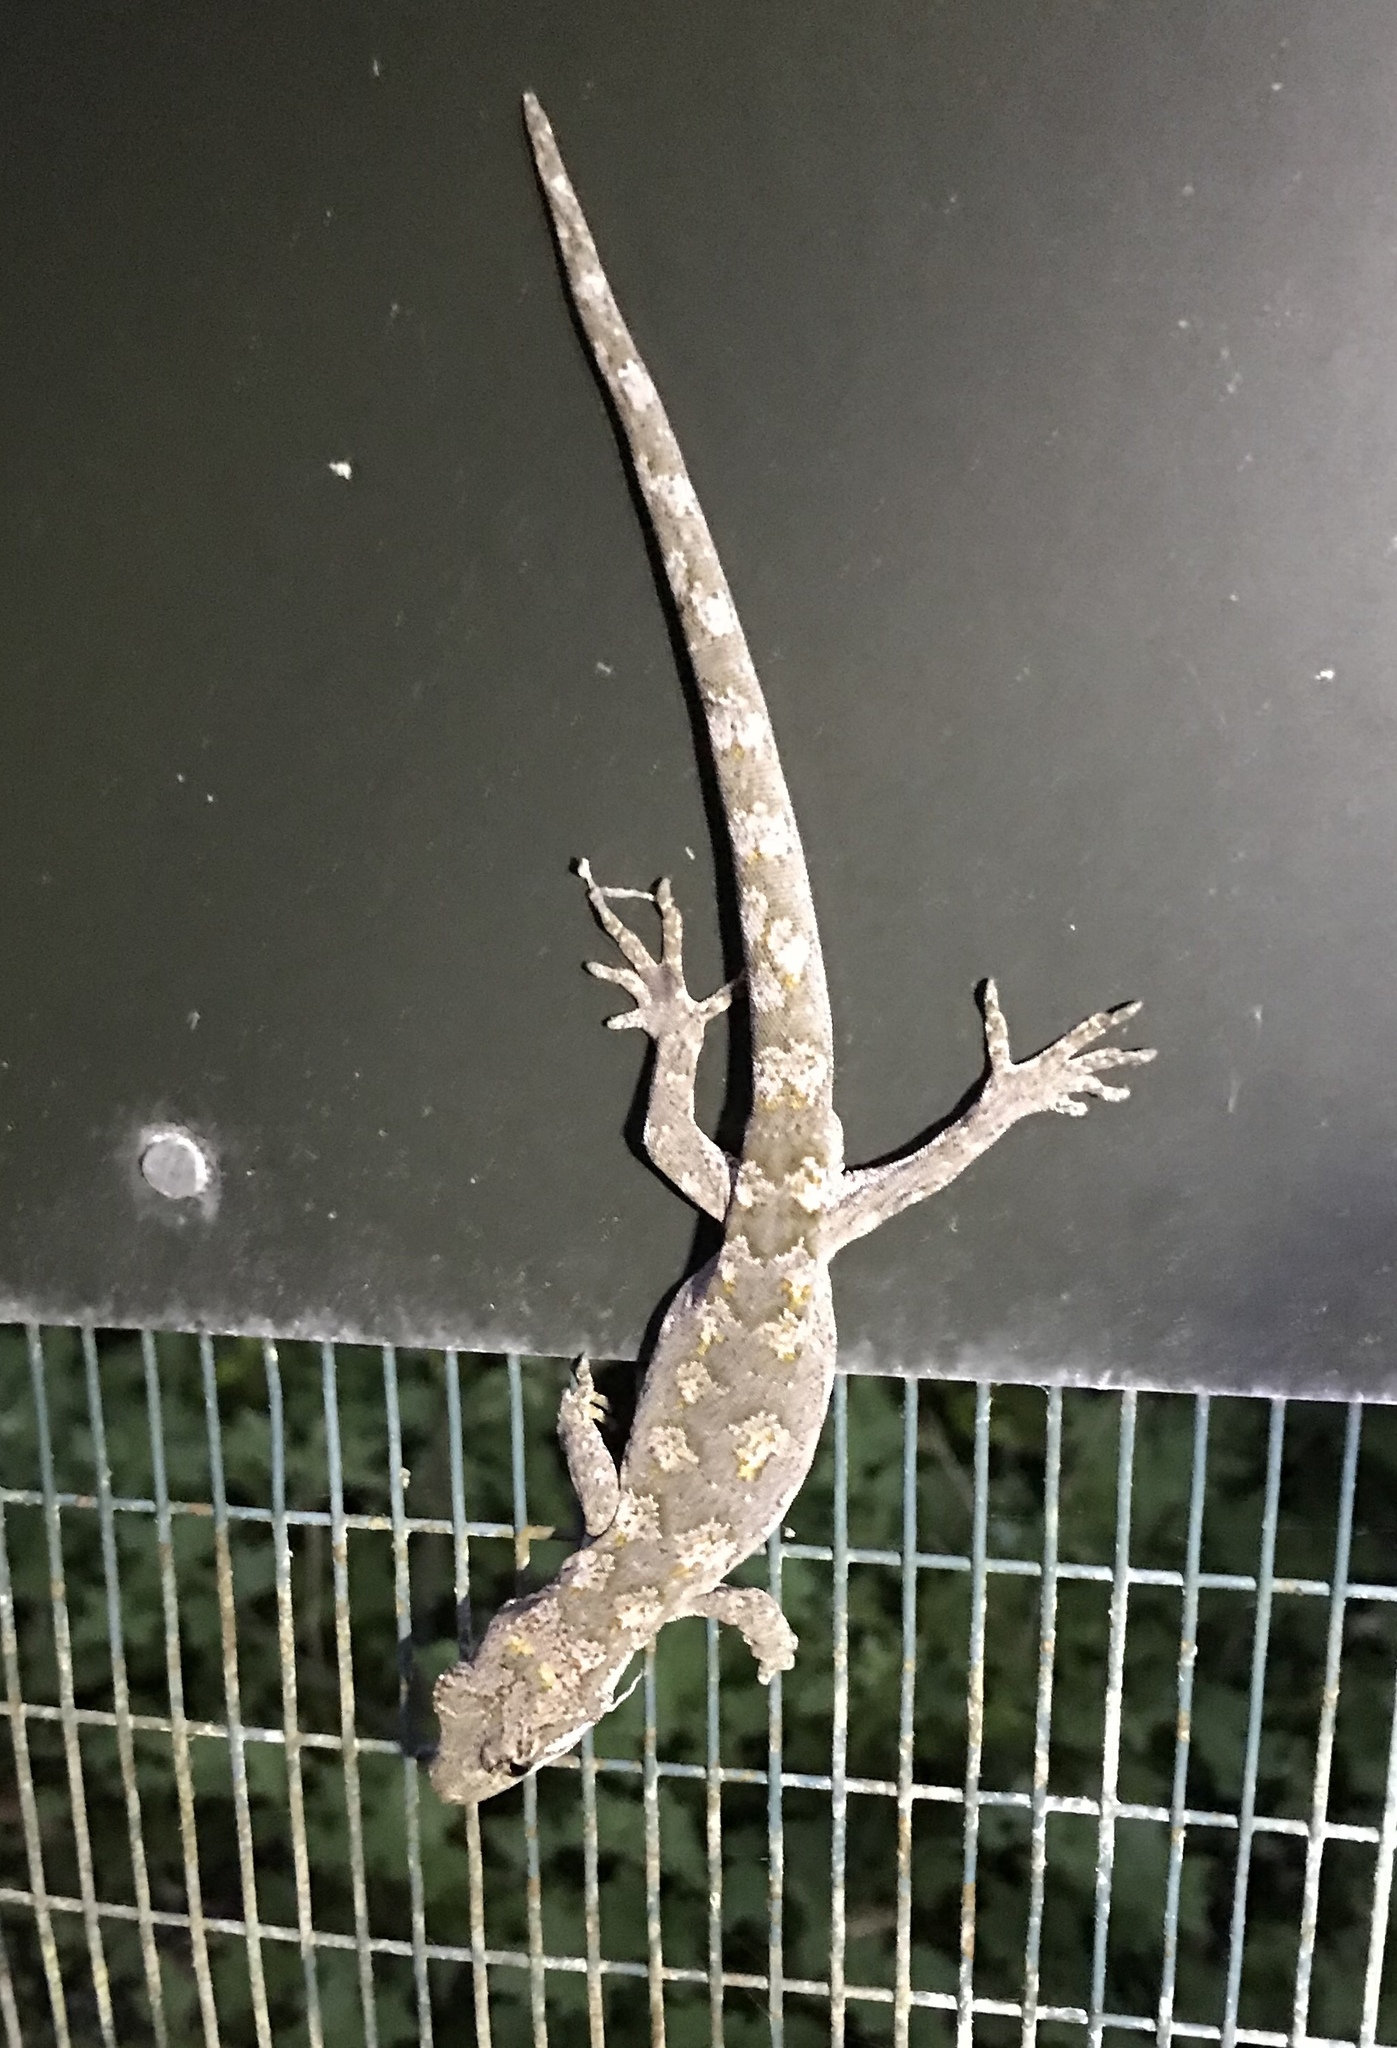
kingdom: Animalia
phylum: Chordata
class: Squamata
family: Diplodactylidae
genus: Mokopirirakau
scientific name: Mokopirirakau granulatus
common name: Forest gecko
